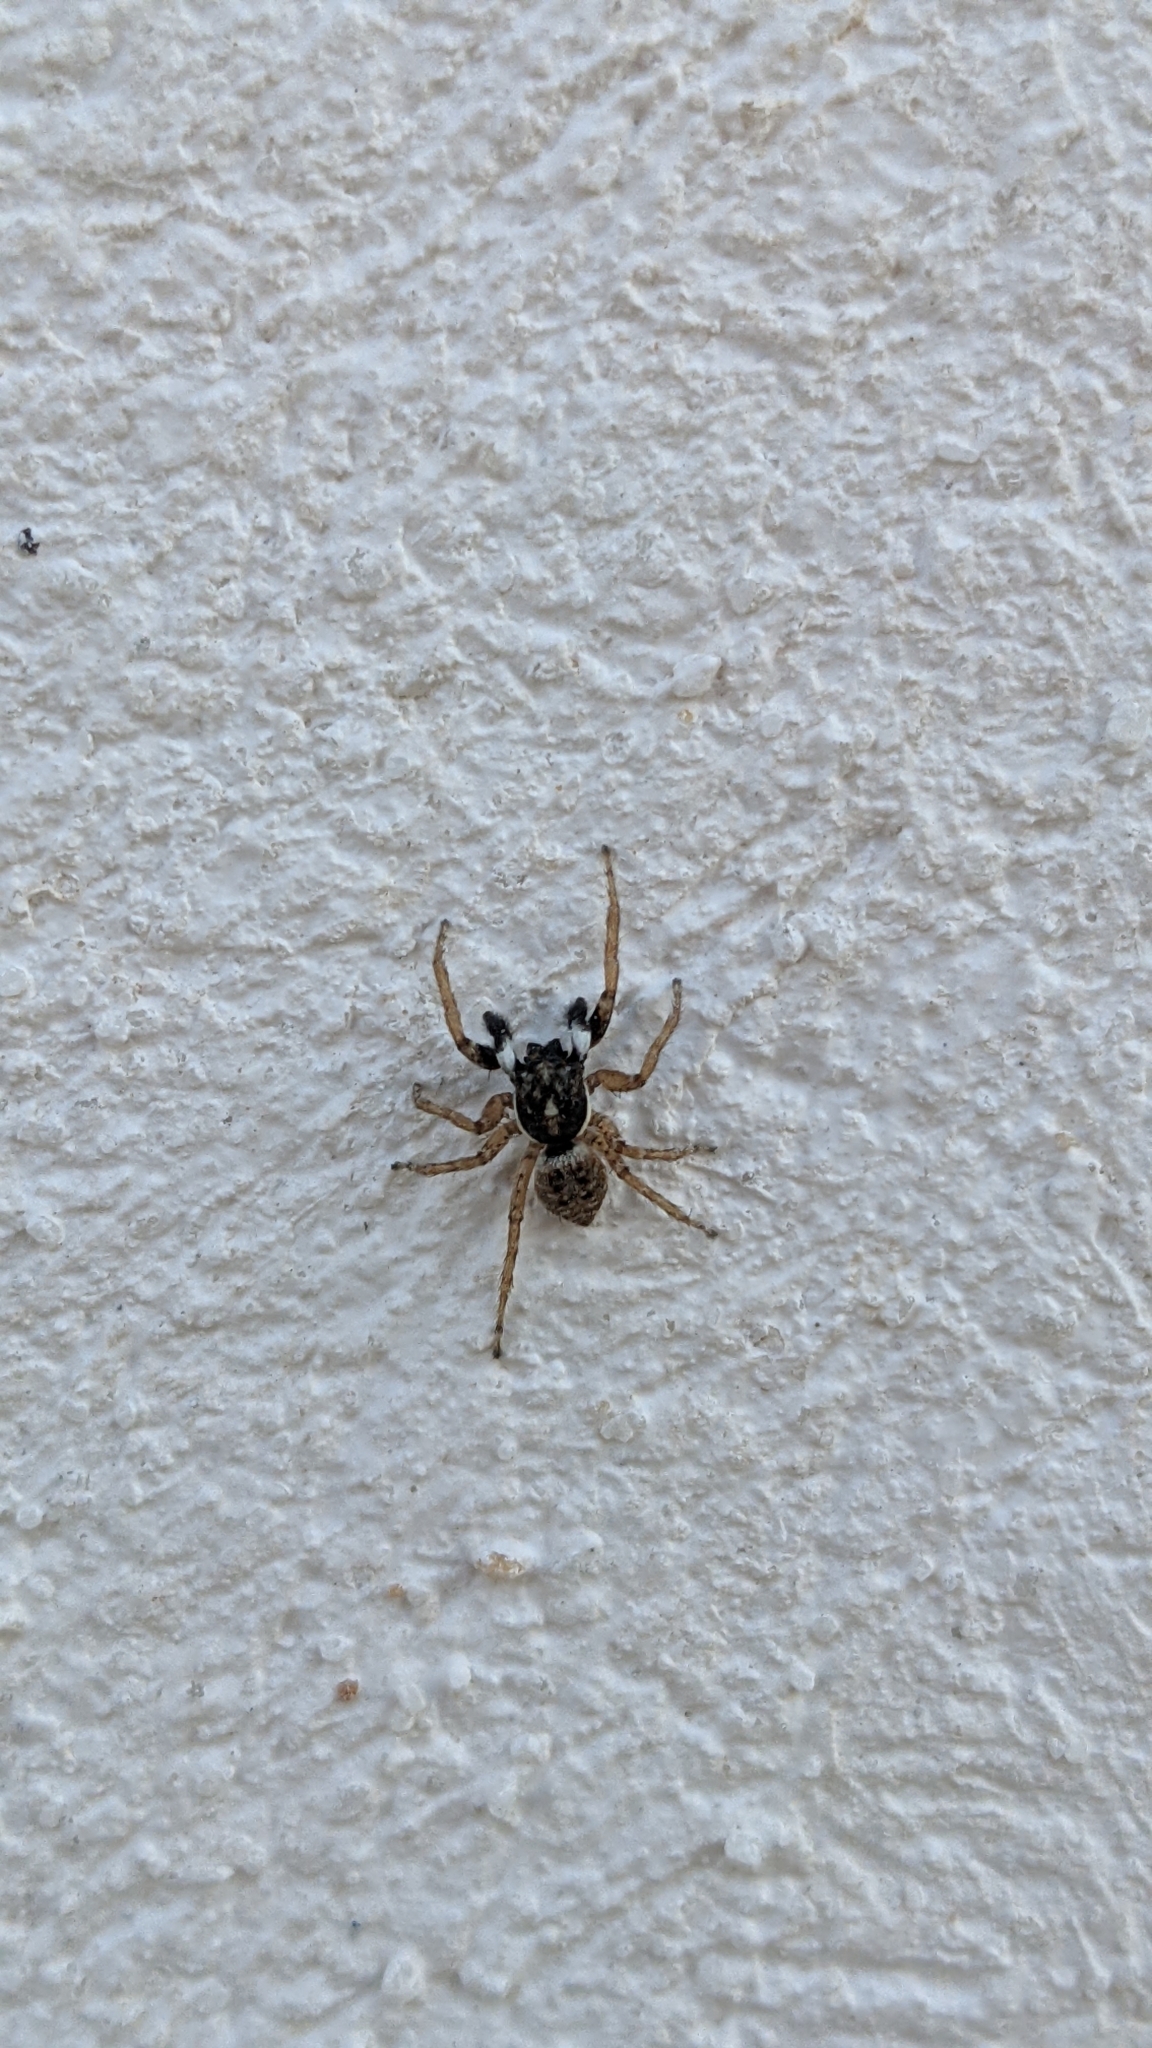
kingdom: Animalia
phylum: Arthropoda
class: Arachnida
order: Araneae
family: Salticidae
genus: Menemerus
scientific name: Menemerus semilimbatus
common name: Jumping spider
